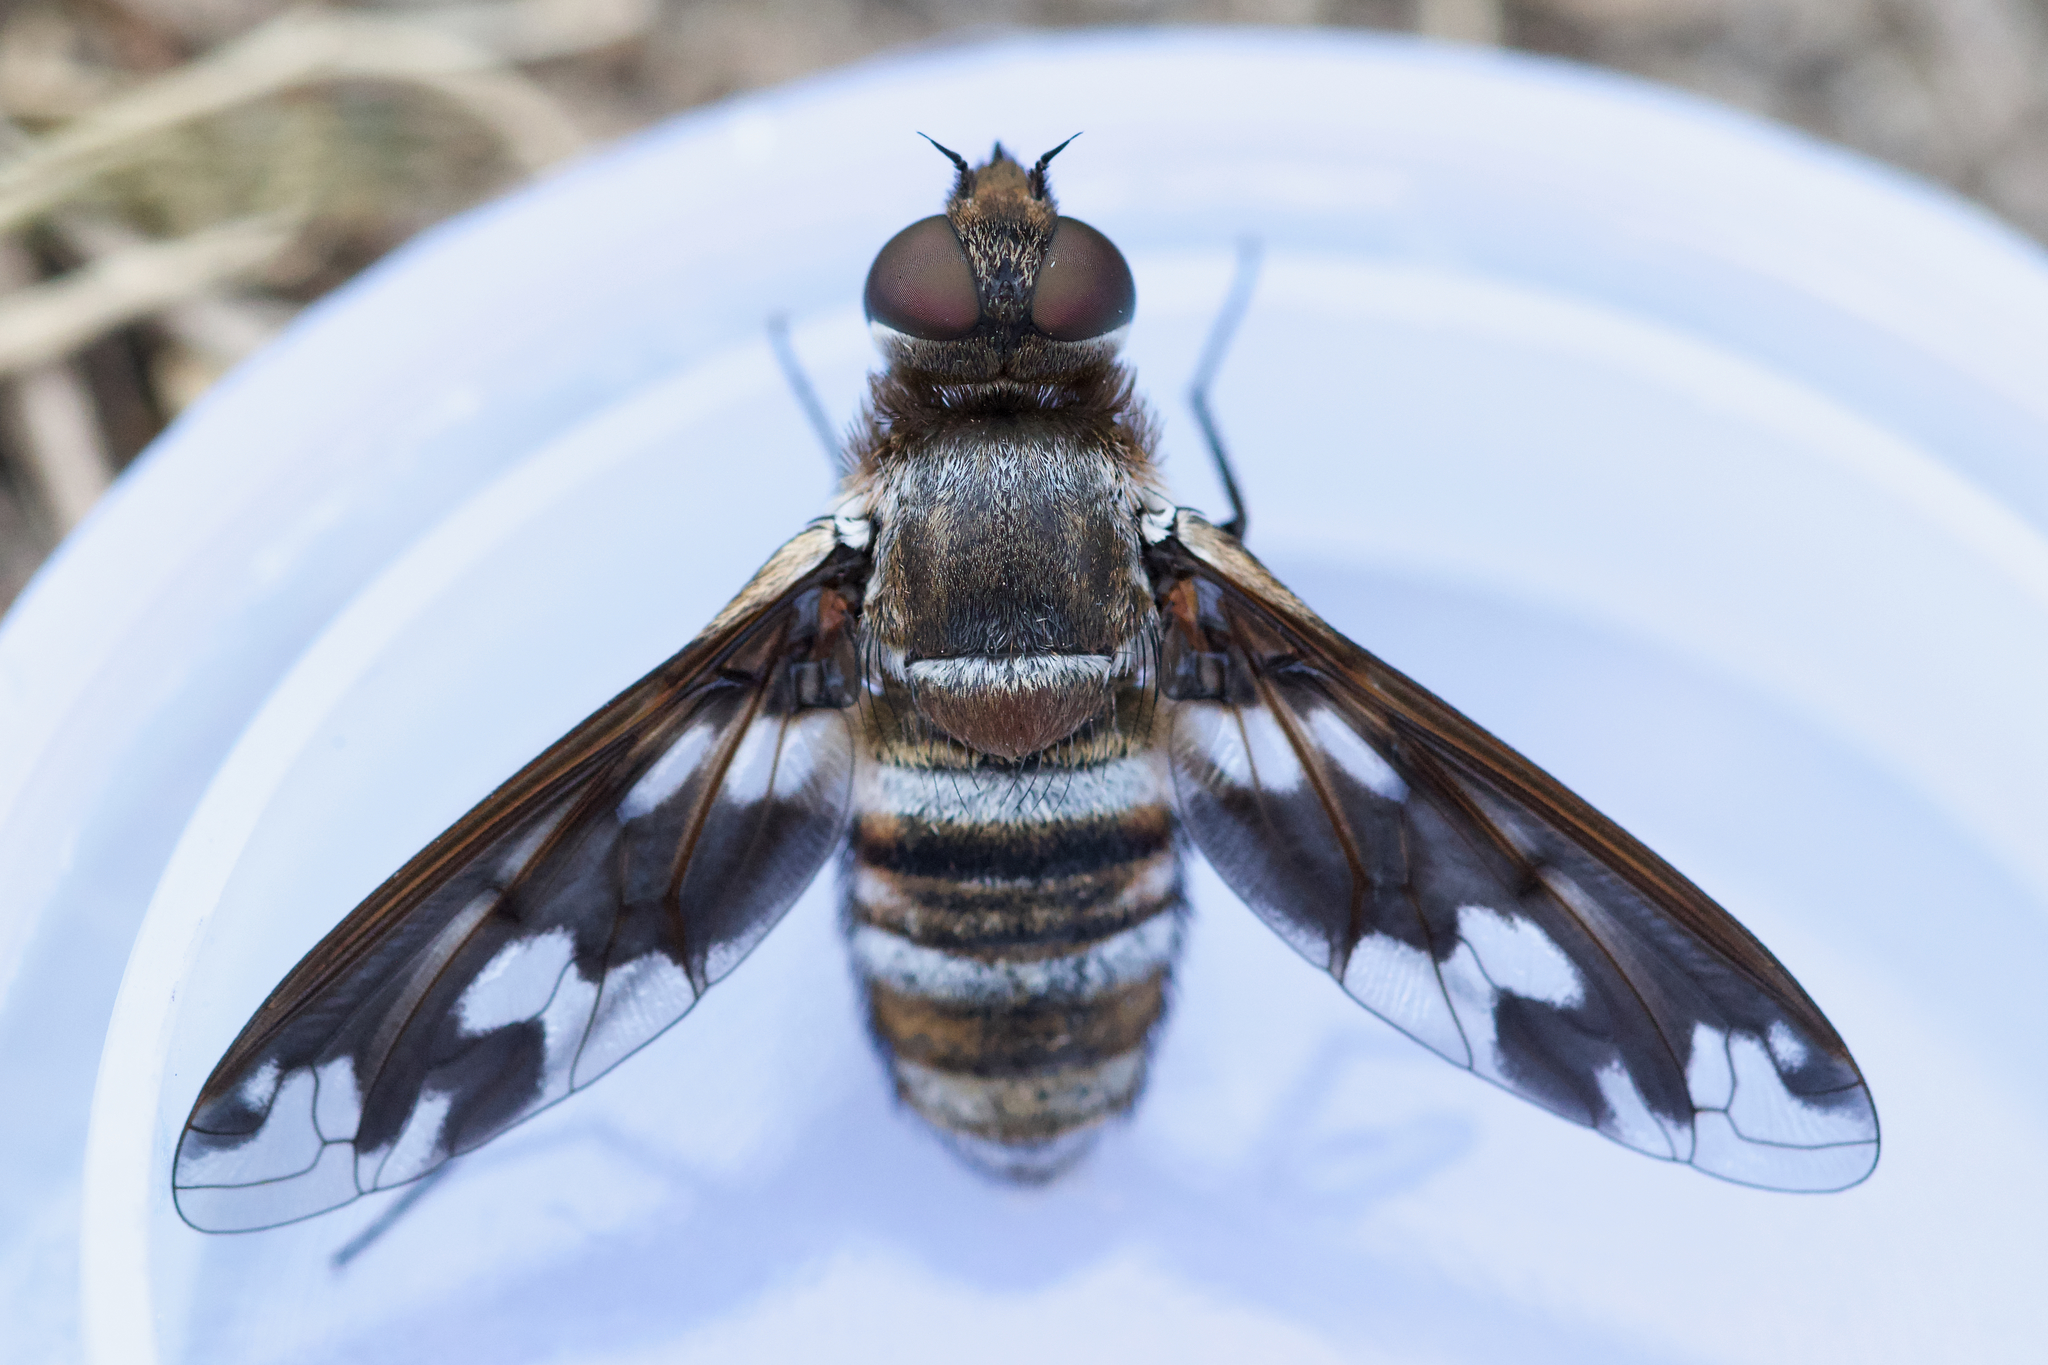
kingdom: Animalia
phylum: Arthropoda
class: Insecta
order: Diptera
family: Bombyliidae
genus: Exoprosopa
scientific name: Exoprosopa fascipennis
